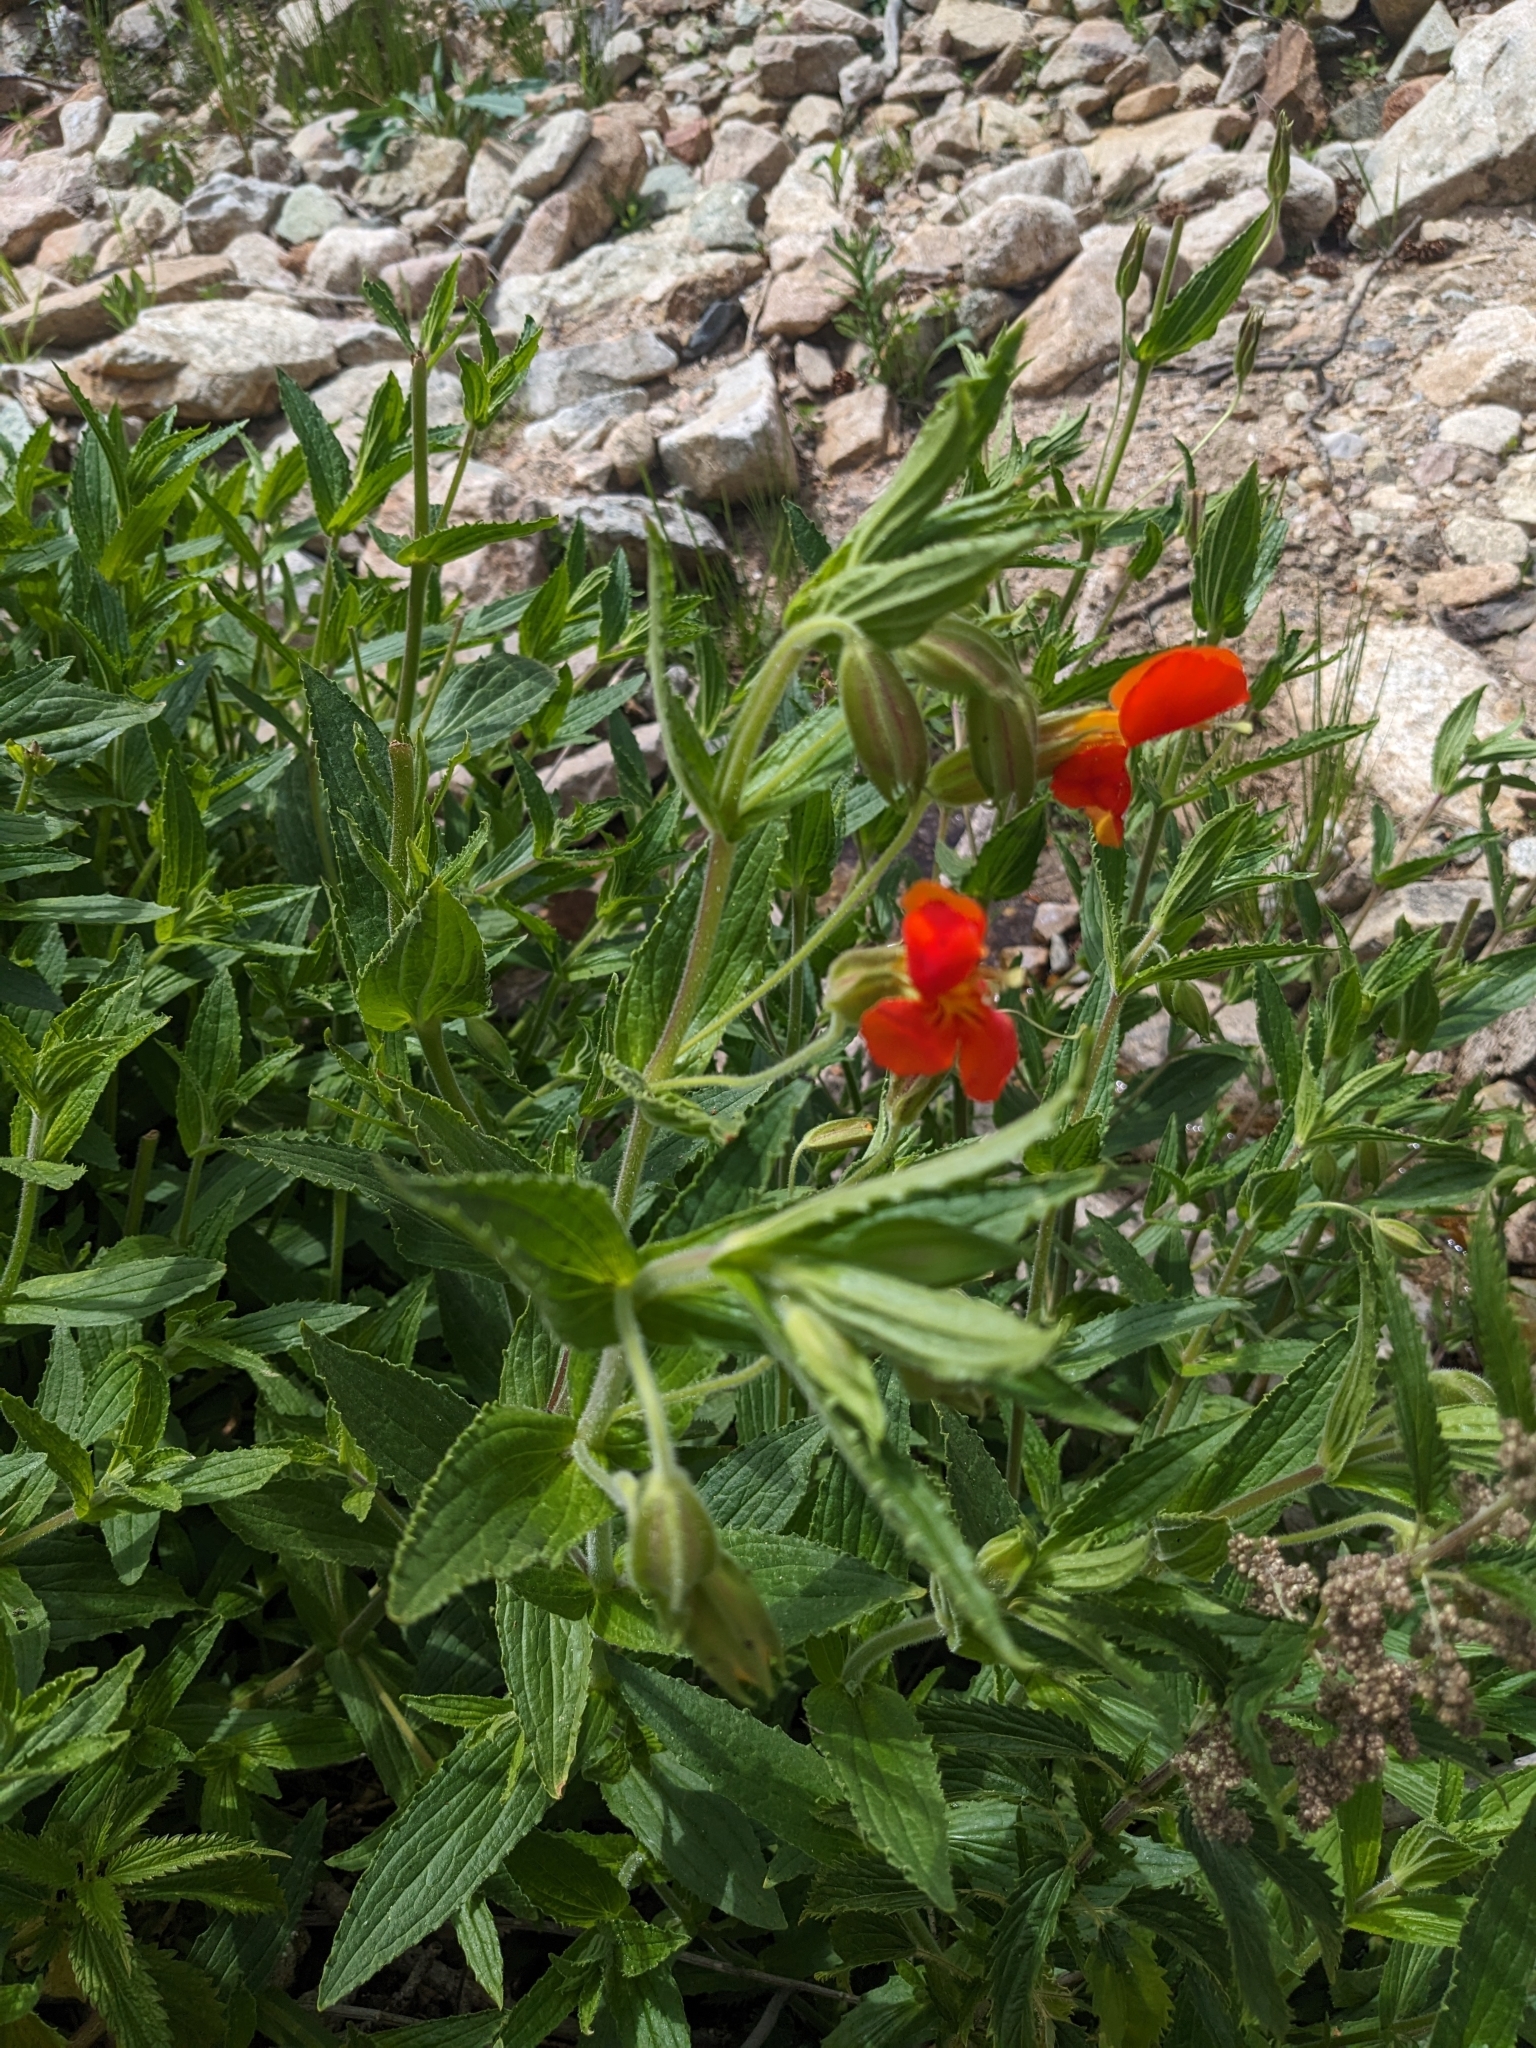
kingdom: Plantae
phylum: Tracheophyta
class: Magnoliopsida
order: Lamiales
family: Phrymaceae
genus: Erythranthe
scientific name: Erythranthe cinnabarina
